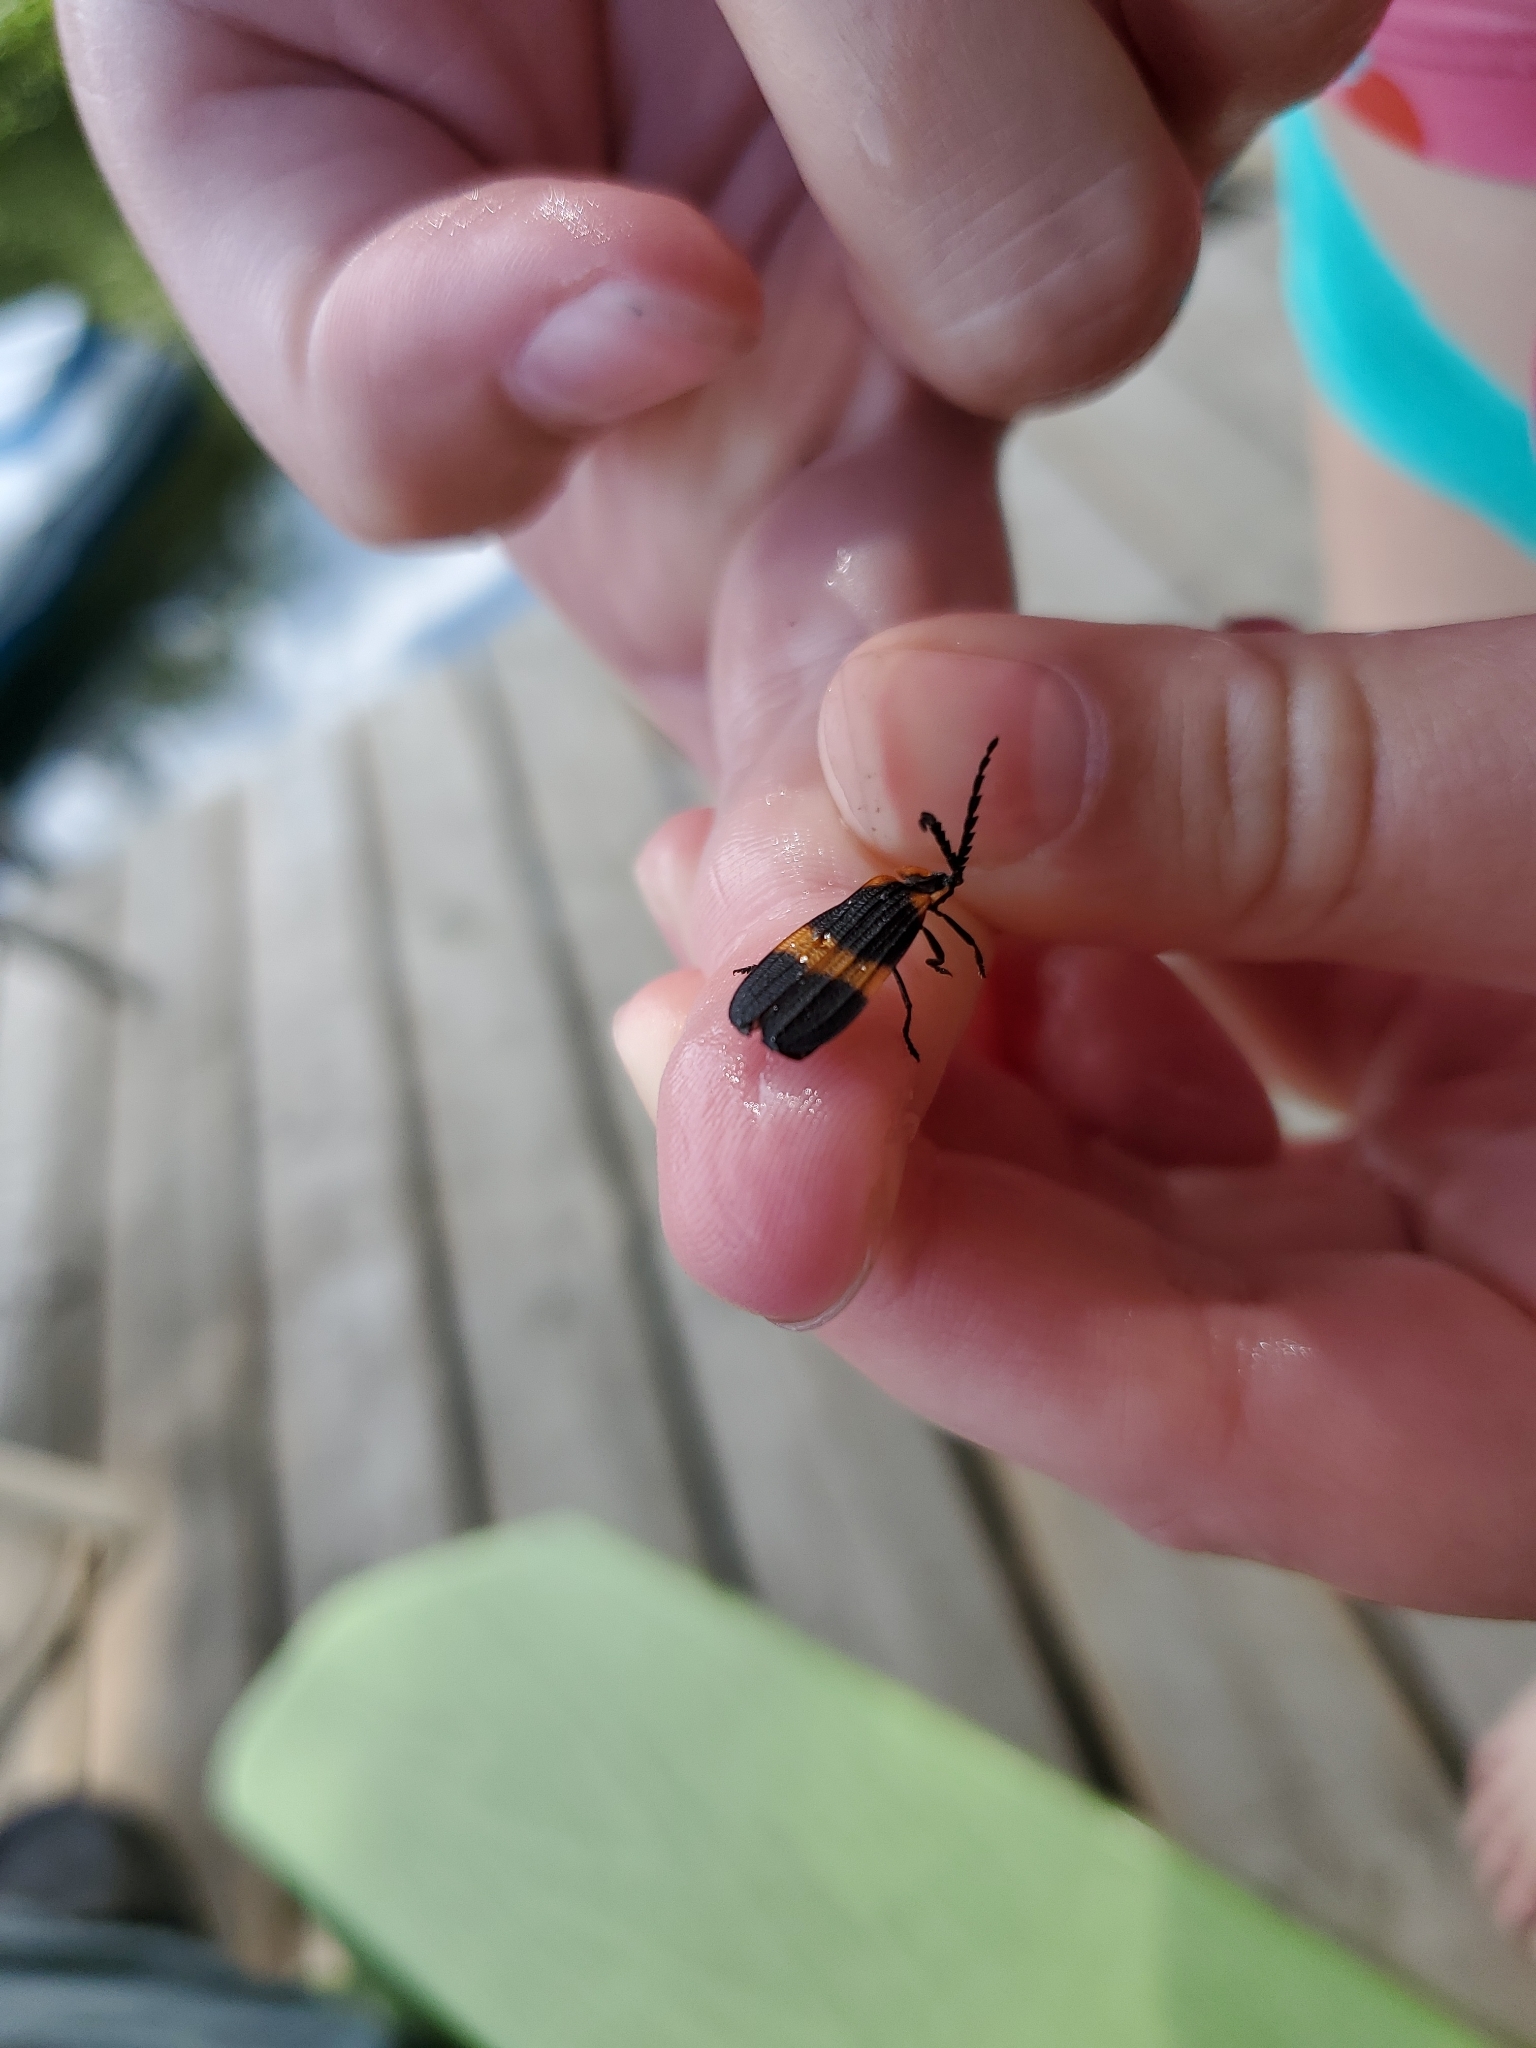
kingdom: Animalia
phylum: Arthropoda
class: Insecta
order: Coleoptera
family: Lycidae
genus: Calopteron
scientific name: Calopteron reticulatum
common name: Banded net-winged beetle
